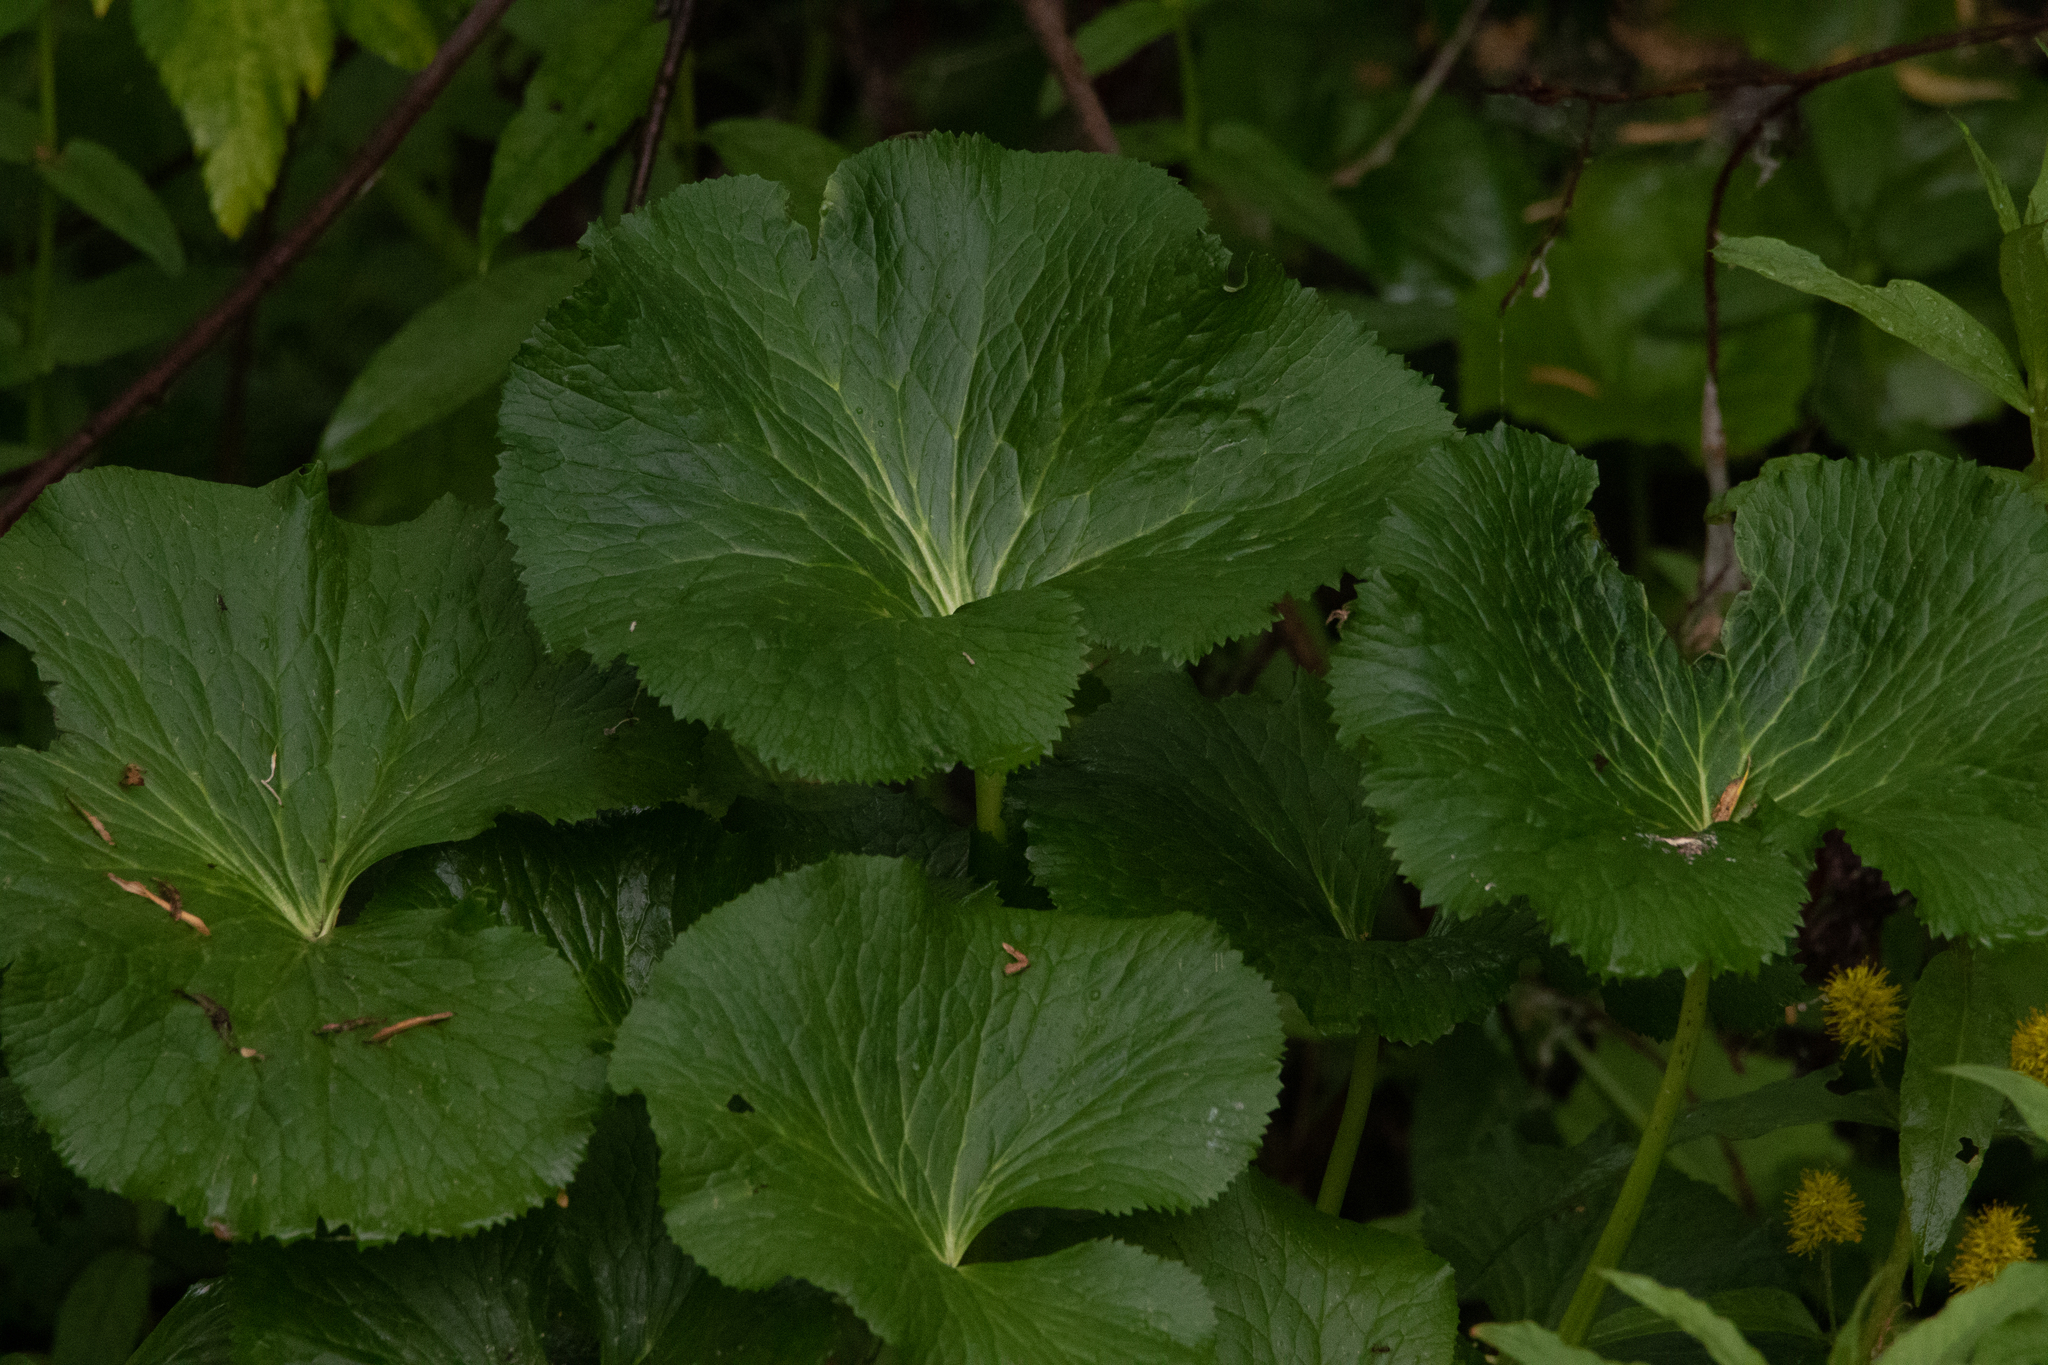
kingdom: Plantae
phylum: Tracheophyta
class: Magnoliopsida
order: Ranunculales
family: Ranunculaceae
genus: Caltha
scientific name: Caltha palustris
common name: Marsh marigold
